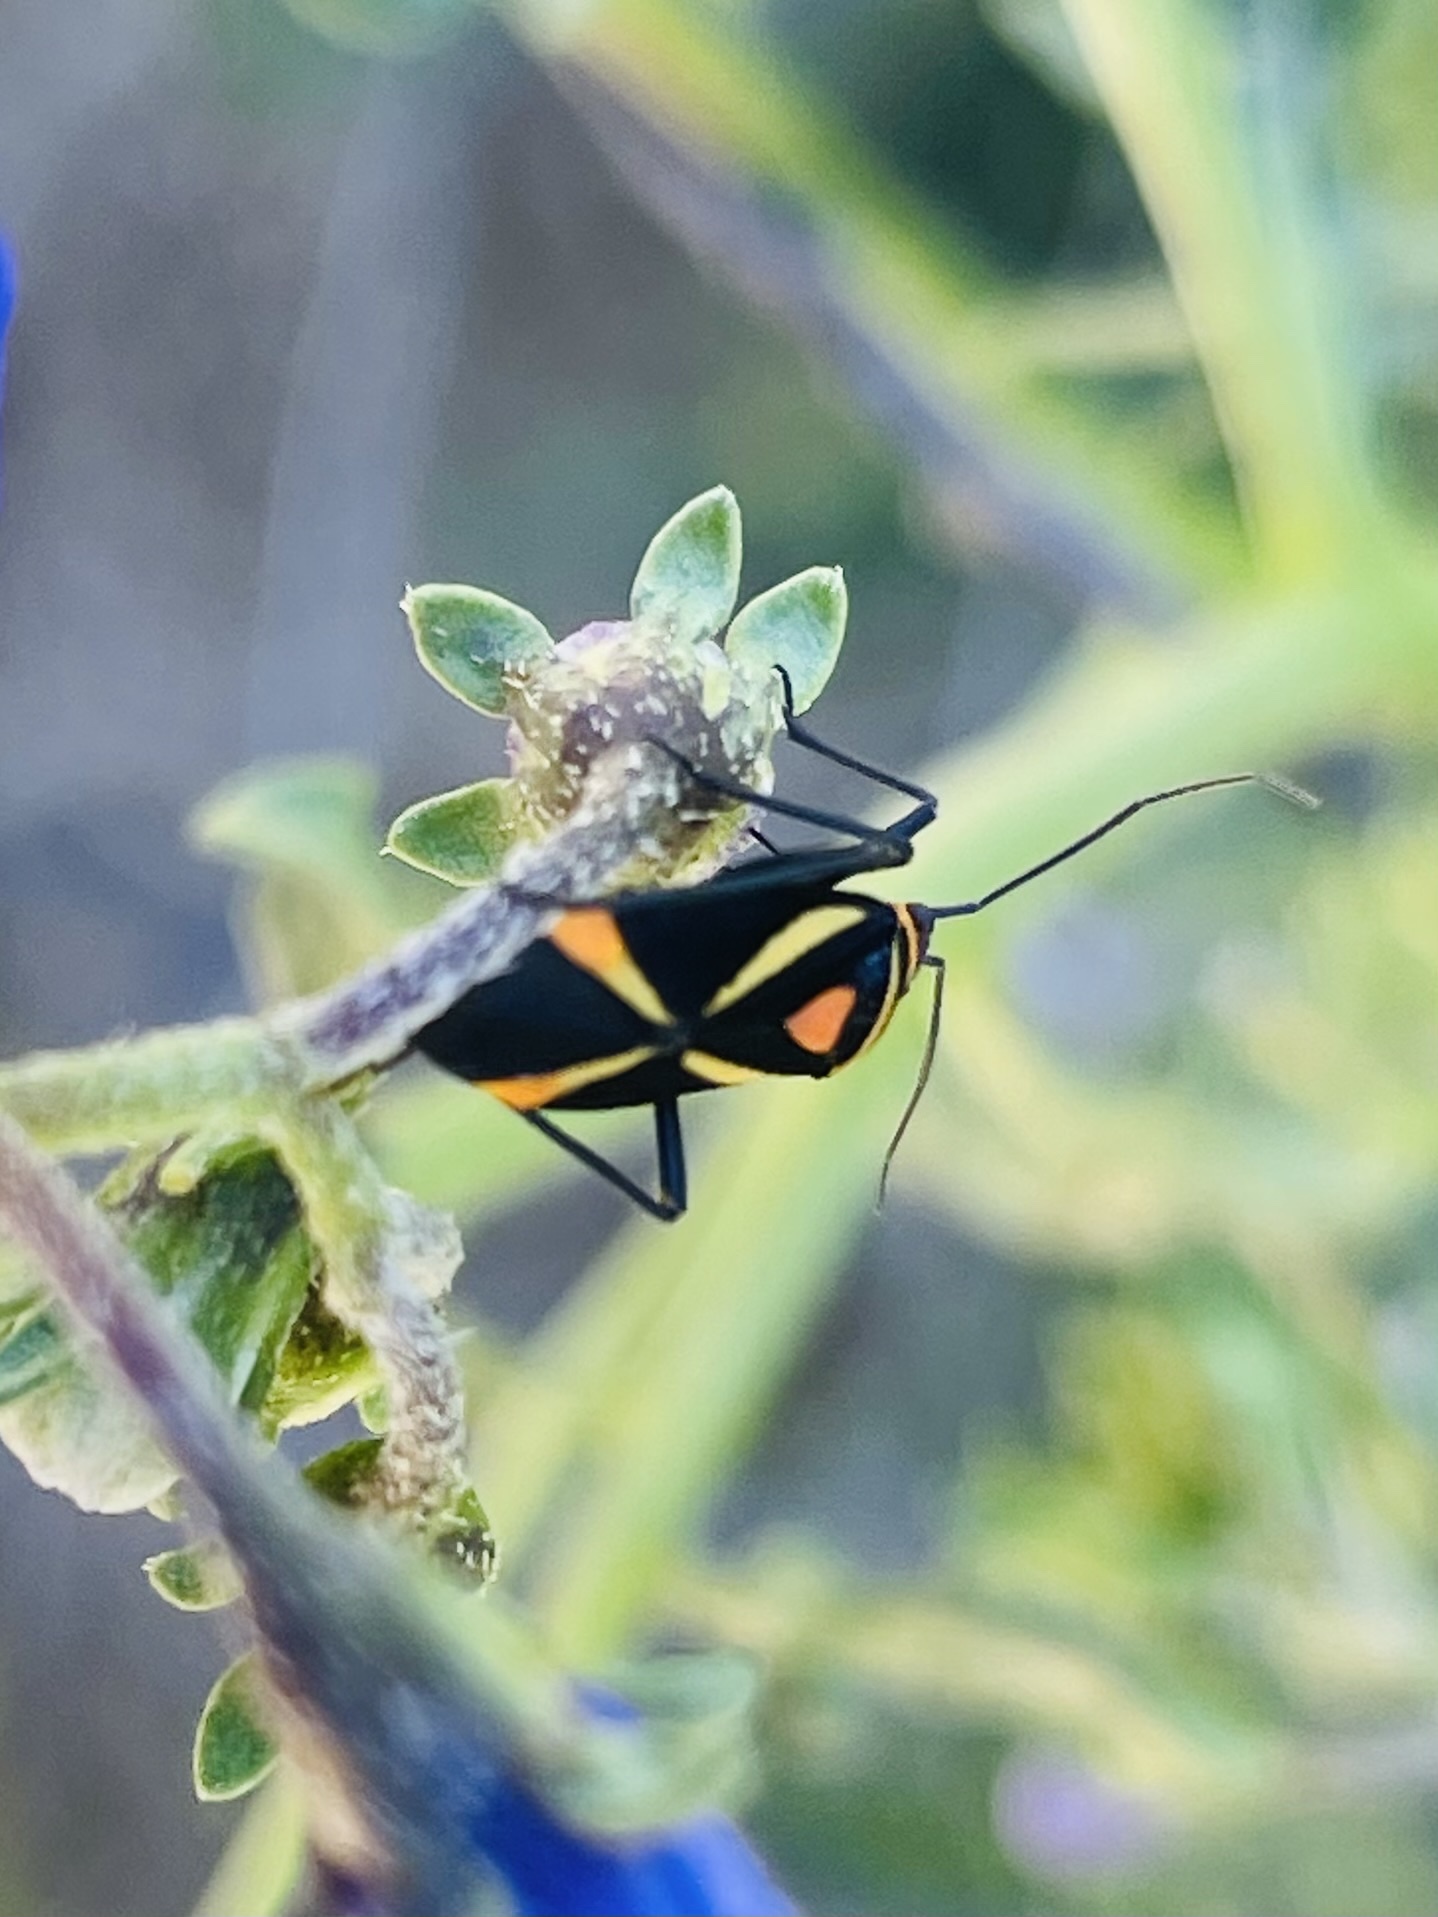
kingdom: Animalia
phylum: Arthropoda
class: Insecta
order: Hemiptera
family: Miridae
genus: Eurylomata
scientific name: Eurylomata picturata
